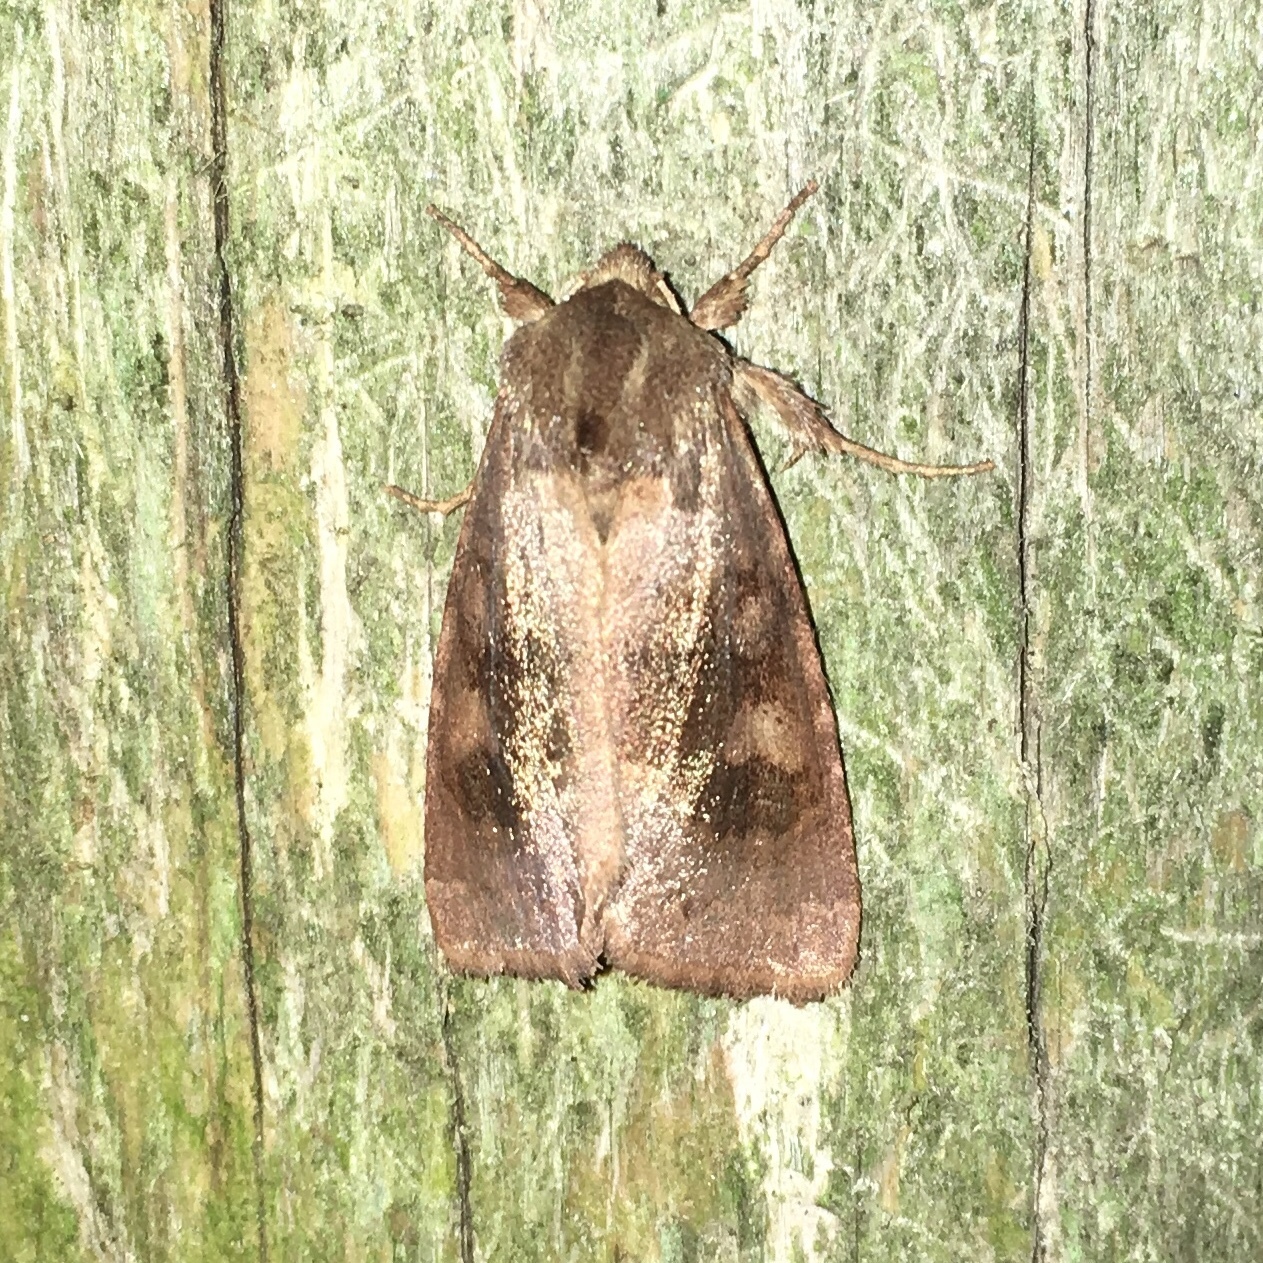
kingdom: Animalia
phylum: Arthropoda
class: Insecta
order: Lepidoptera
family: Noctuidae
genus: Nephelodes
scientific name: Nephelodes minians
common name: Bronzed cutworm
